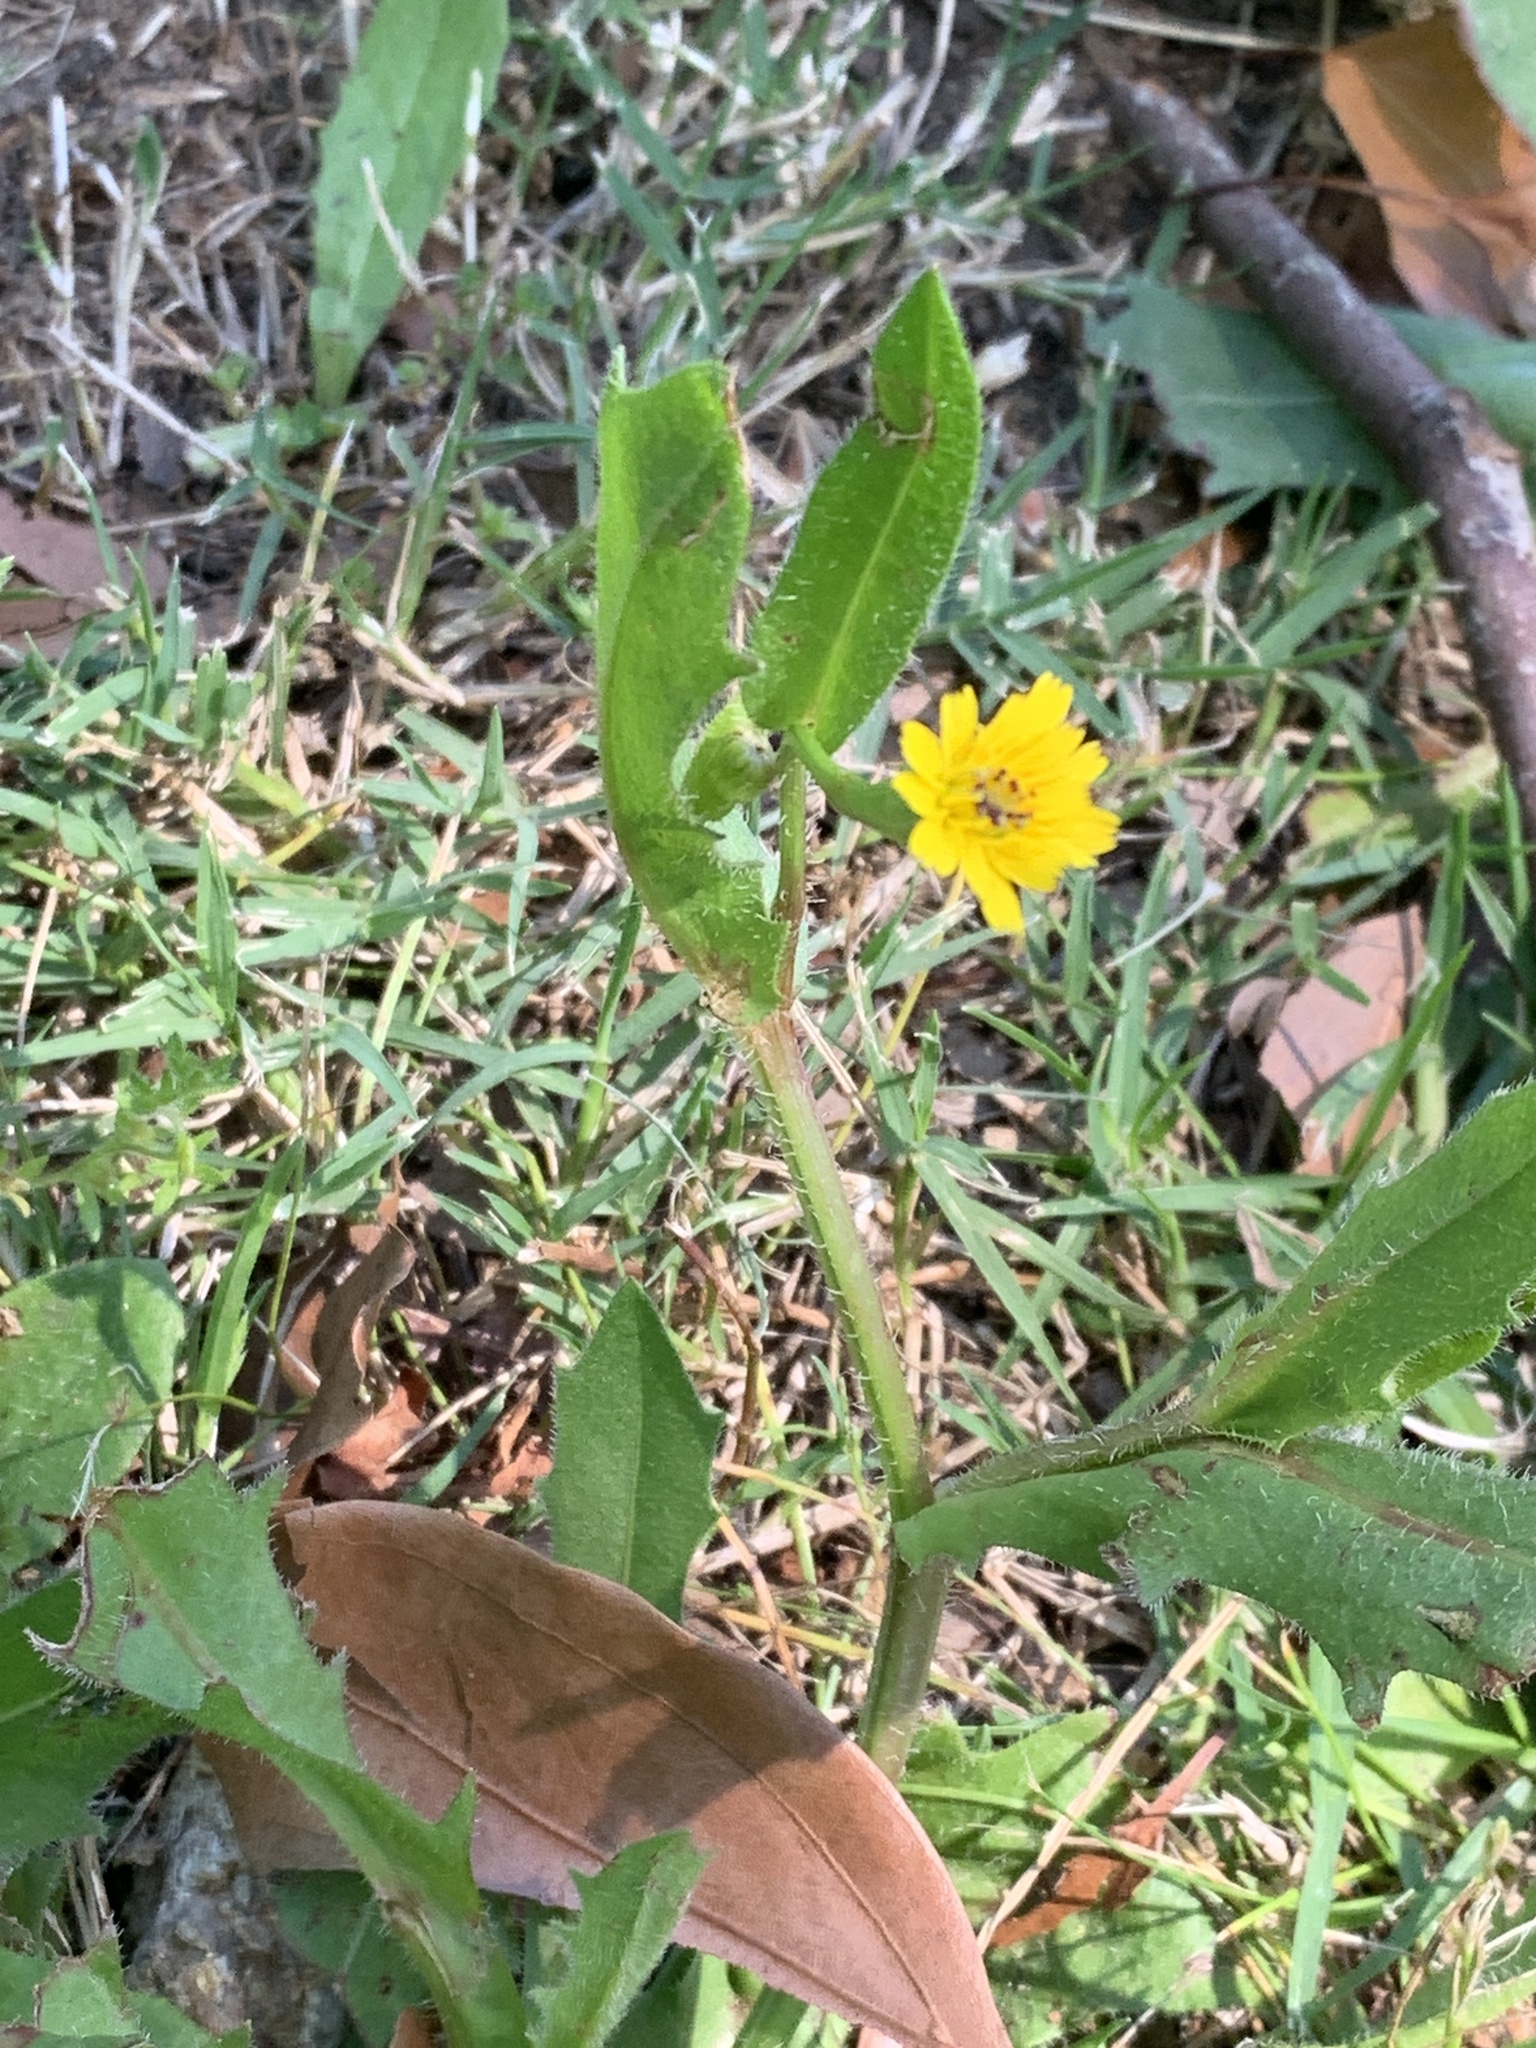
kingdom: Plantae
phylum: Tracheophyta
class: Magnoliopsida
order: Asterales
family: Asteraceae
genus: Hedypnois
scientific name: Hedypnois rhagadioloides
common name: Cretan weed
